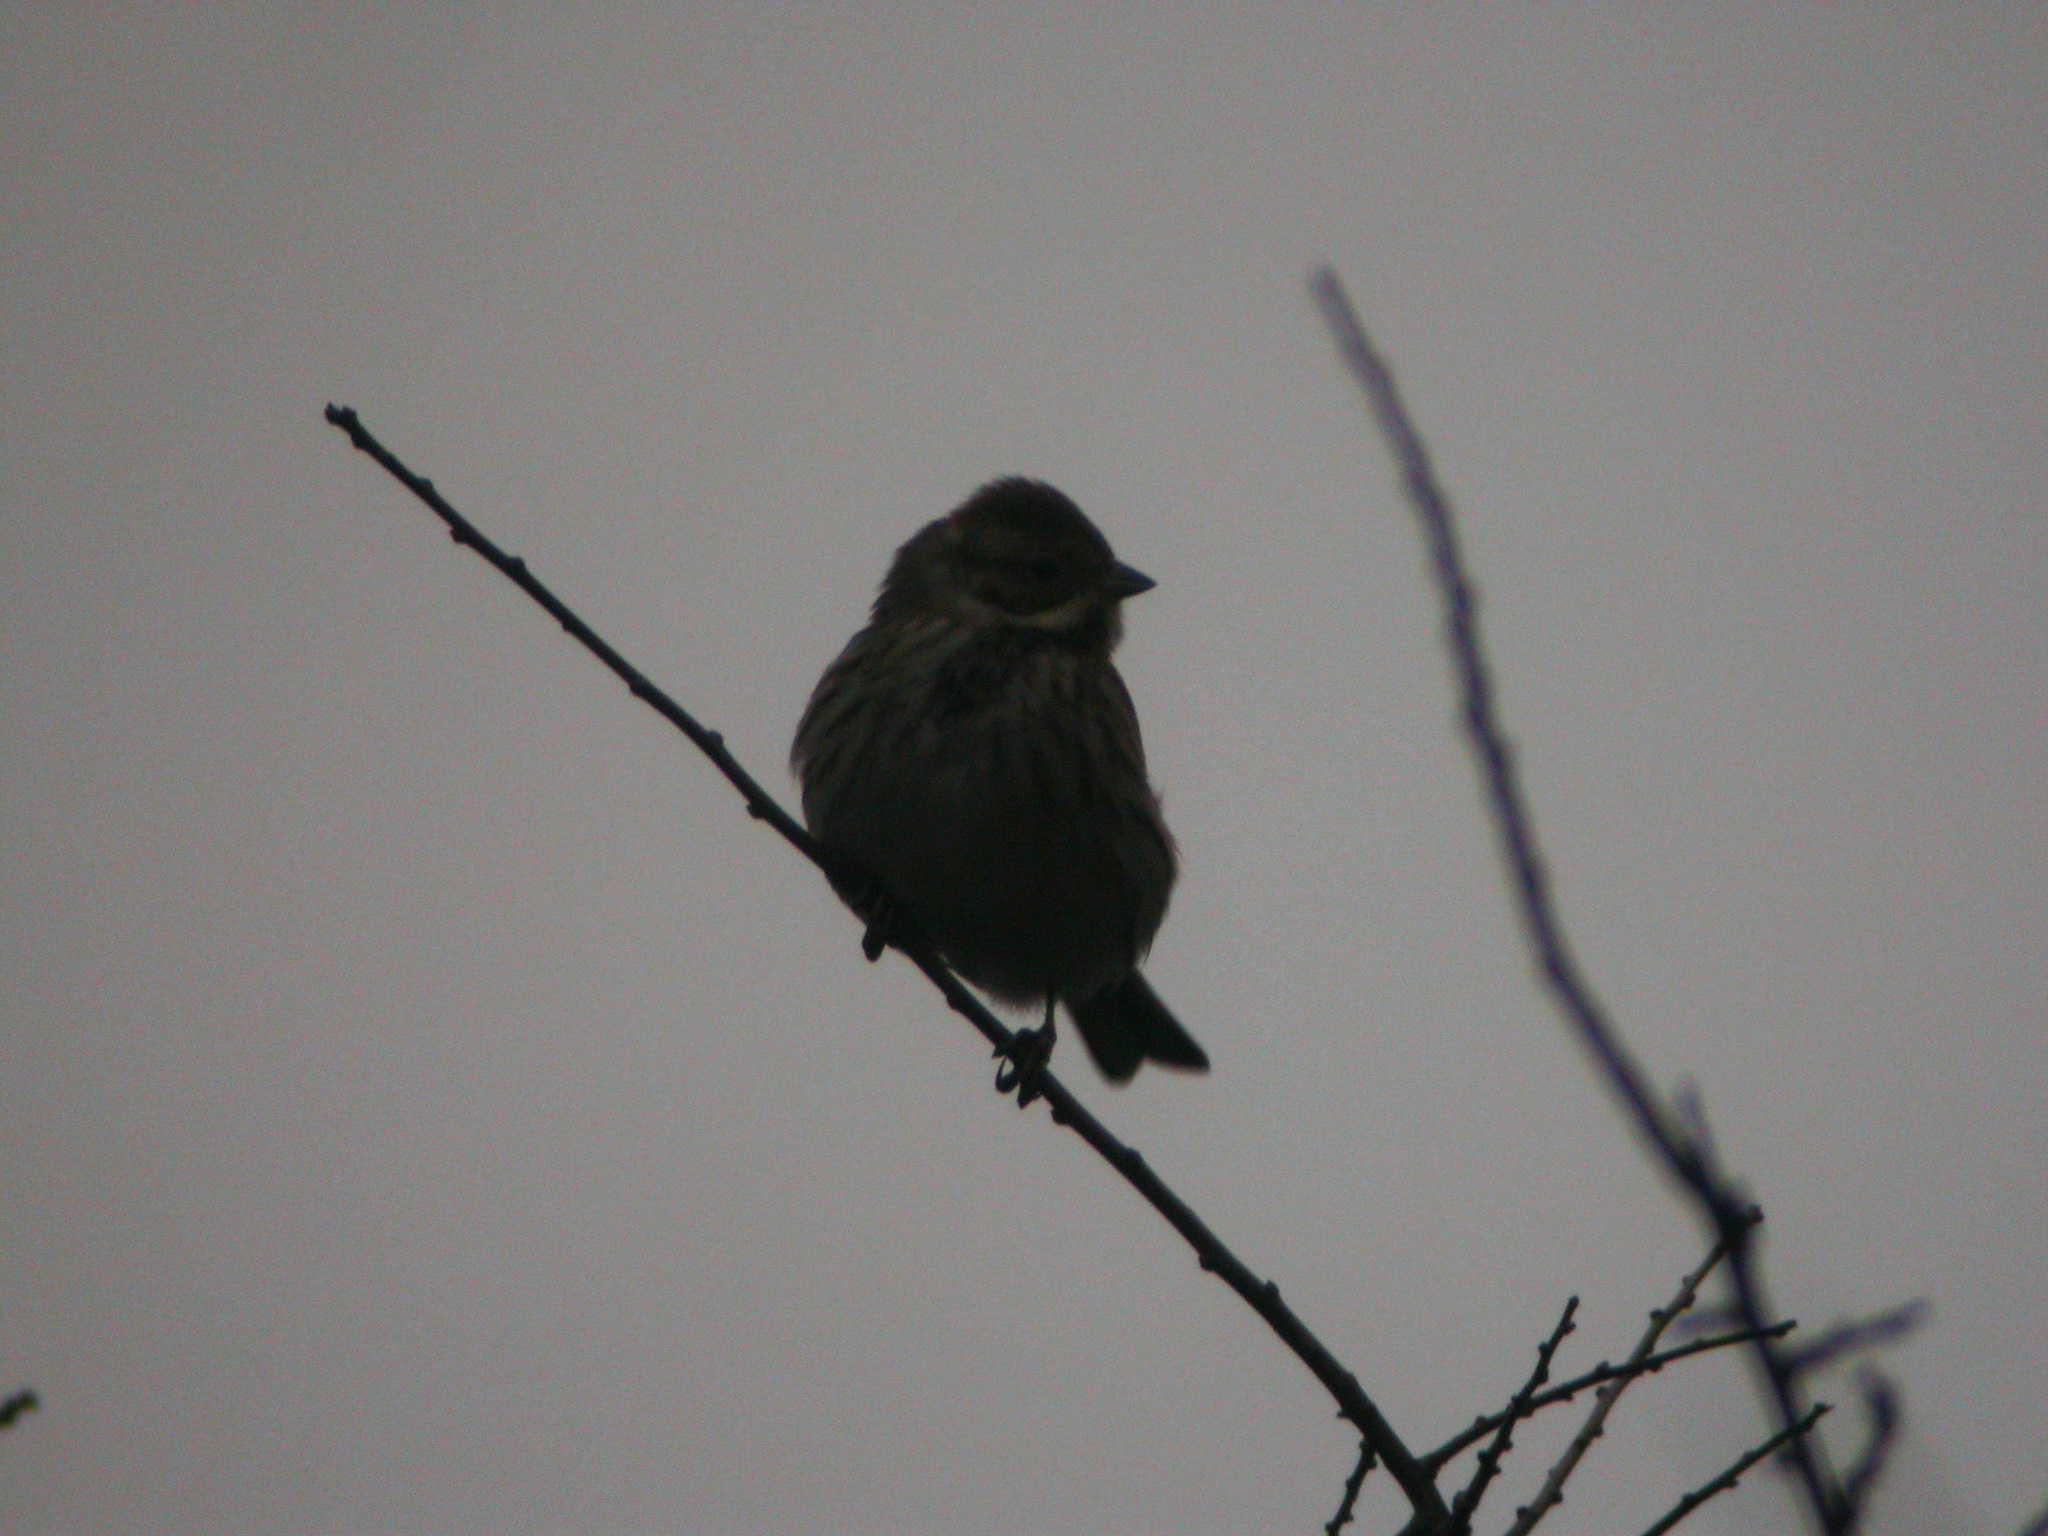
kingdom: Animalia
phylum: Chordata
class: Aves
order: Passeriformes
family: Emberizidae
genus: Emberiza
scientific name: Emberiza schoeniclus
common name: Reed bunting
